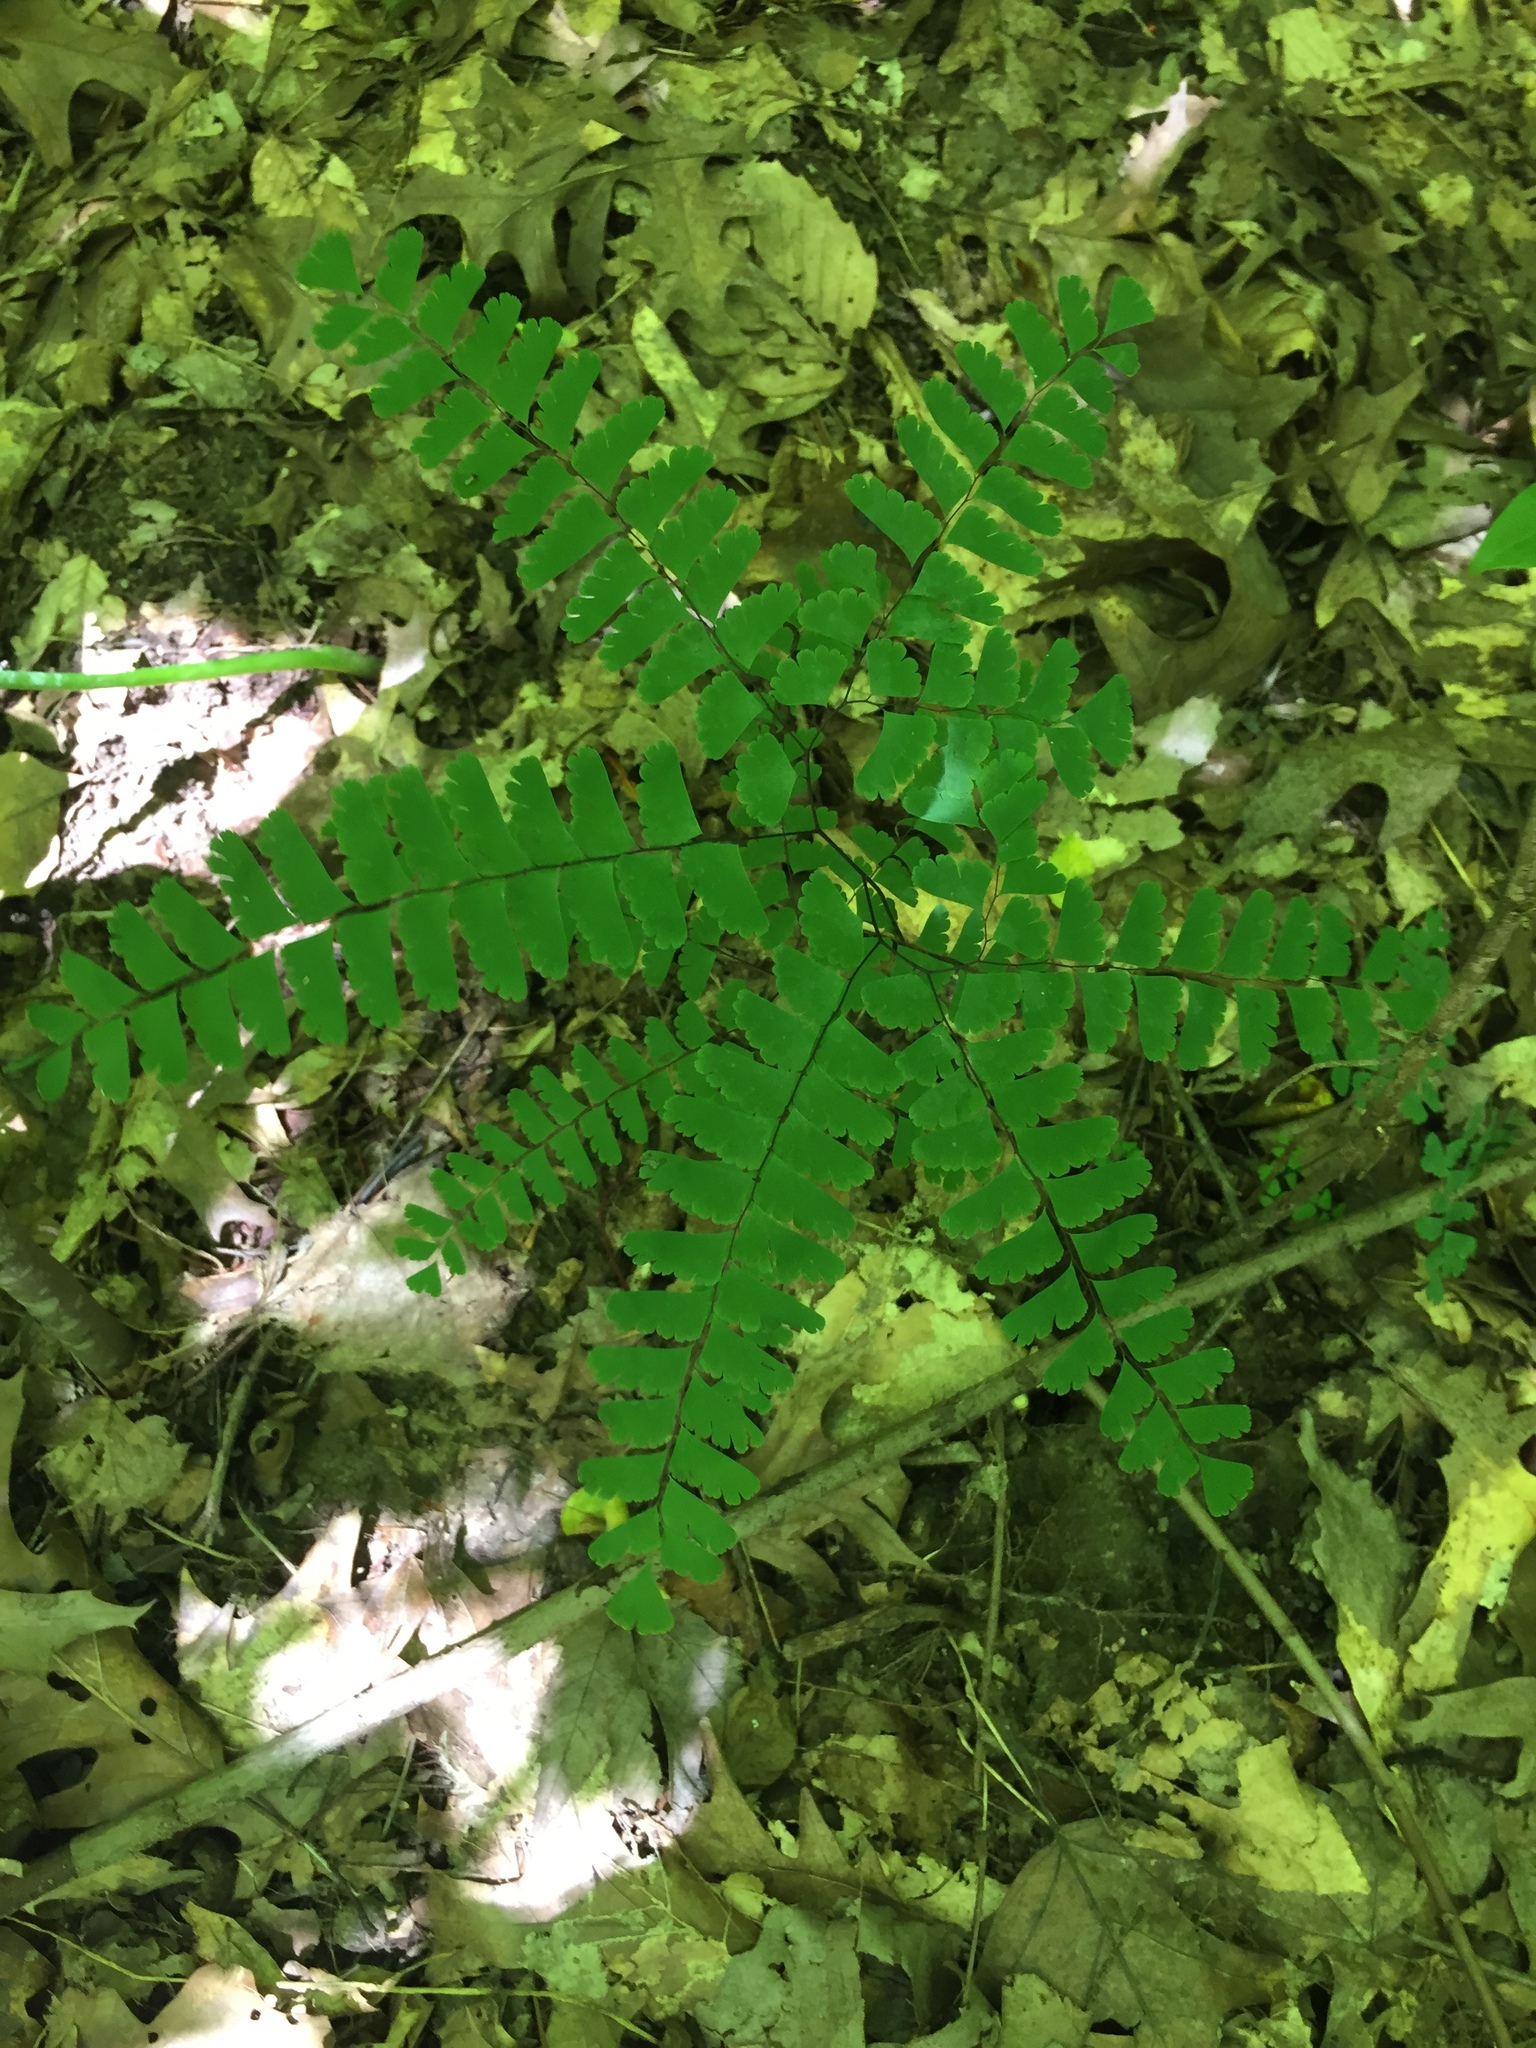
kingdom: Plantae
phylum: Tracheophyta
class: Polypodiopsida
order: Polypodiales
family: Pteridaceae
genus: Adiantum
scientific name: Adiantum pedatum
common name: Five-finger fern
